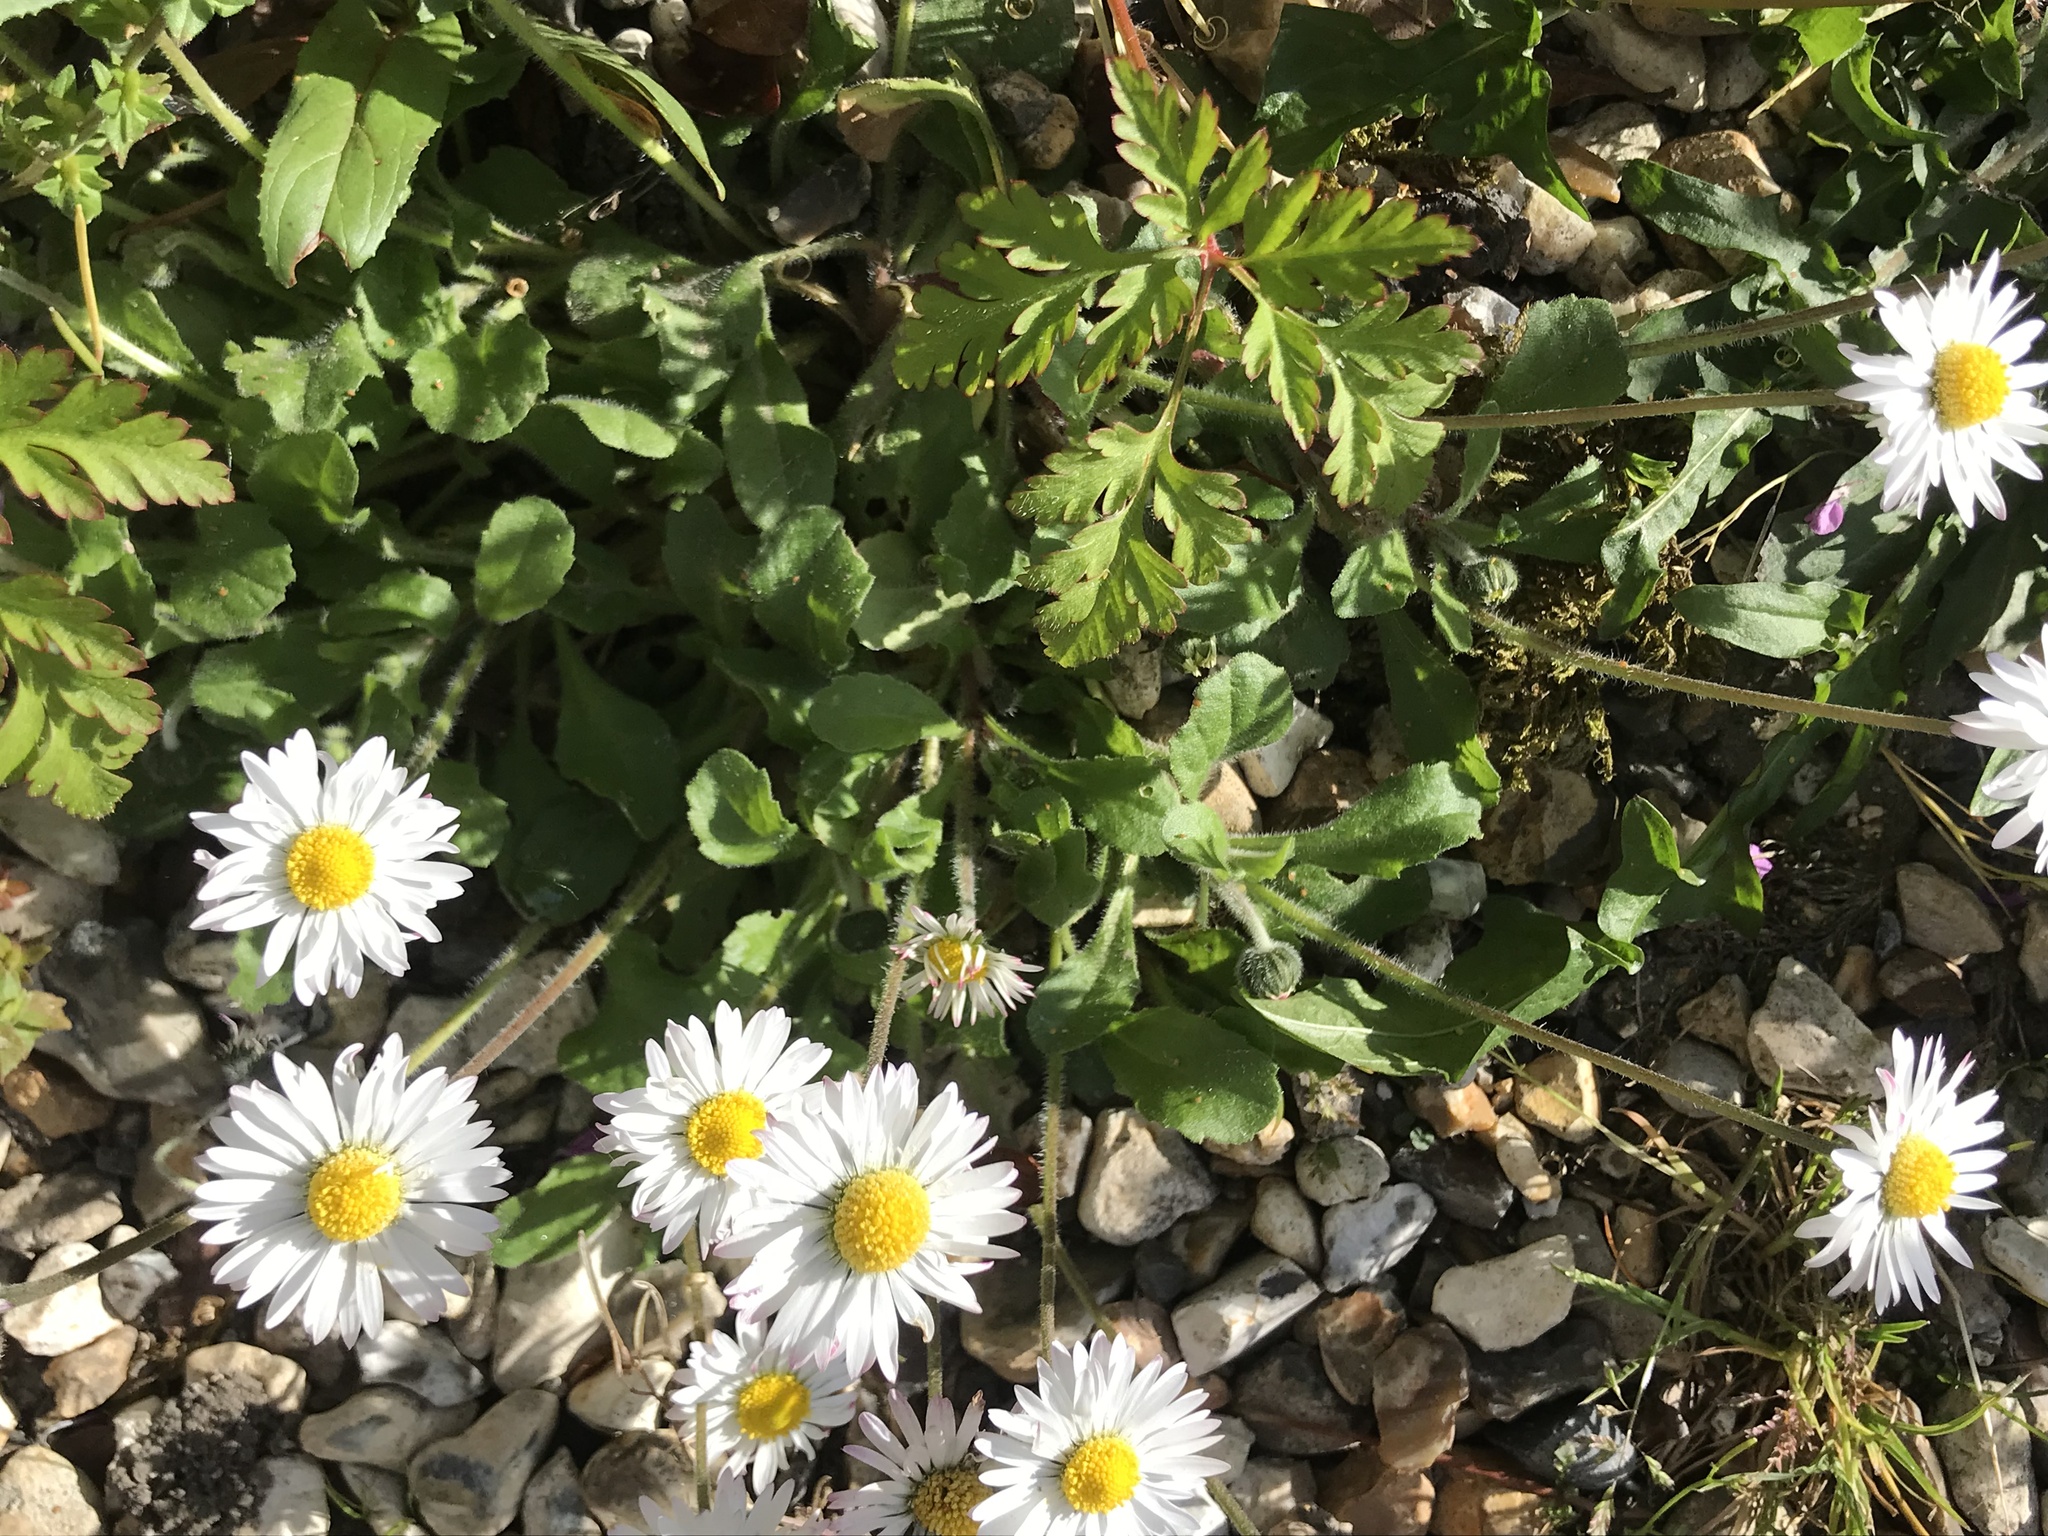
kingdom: Plantae
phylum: Tracheophyta
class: Magnoliopsida
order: Asterales
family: Asteraceae
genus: Bellis
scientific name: Bellis perennis
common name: Lawndaisy
